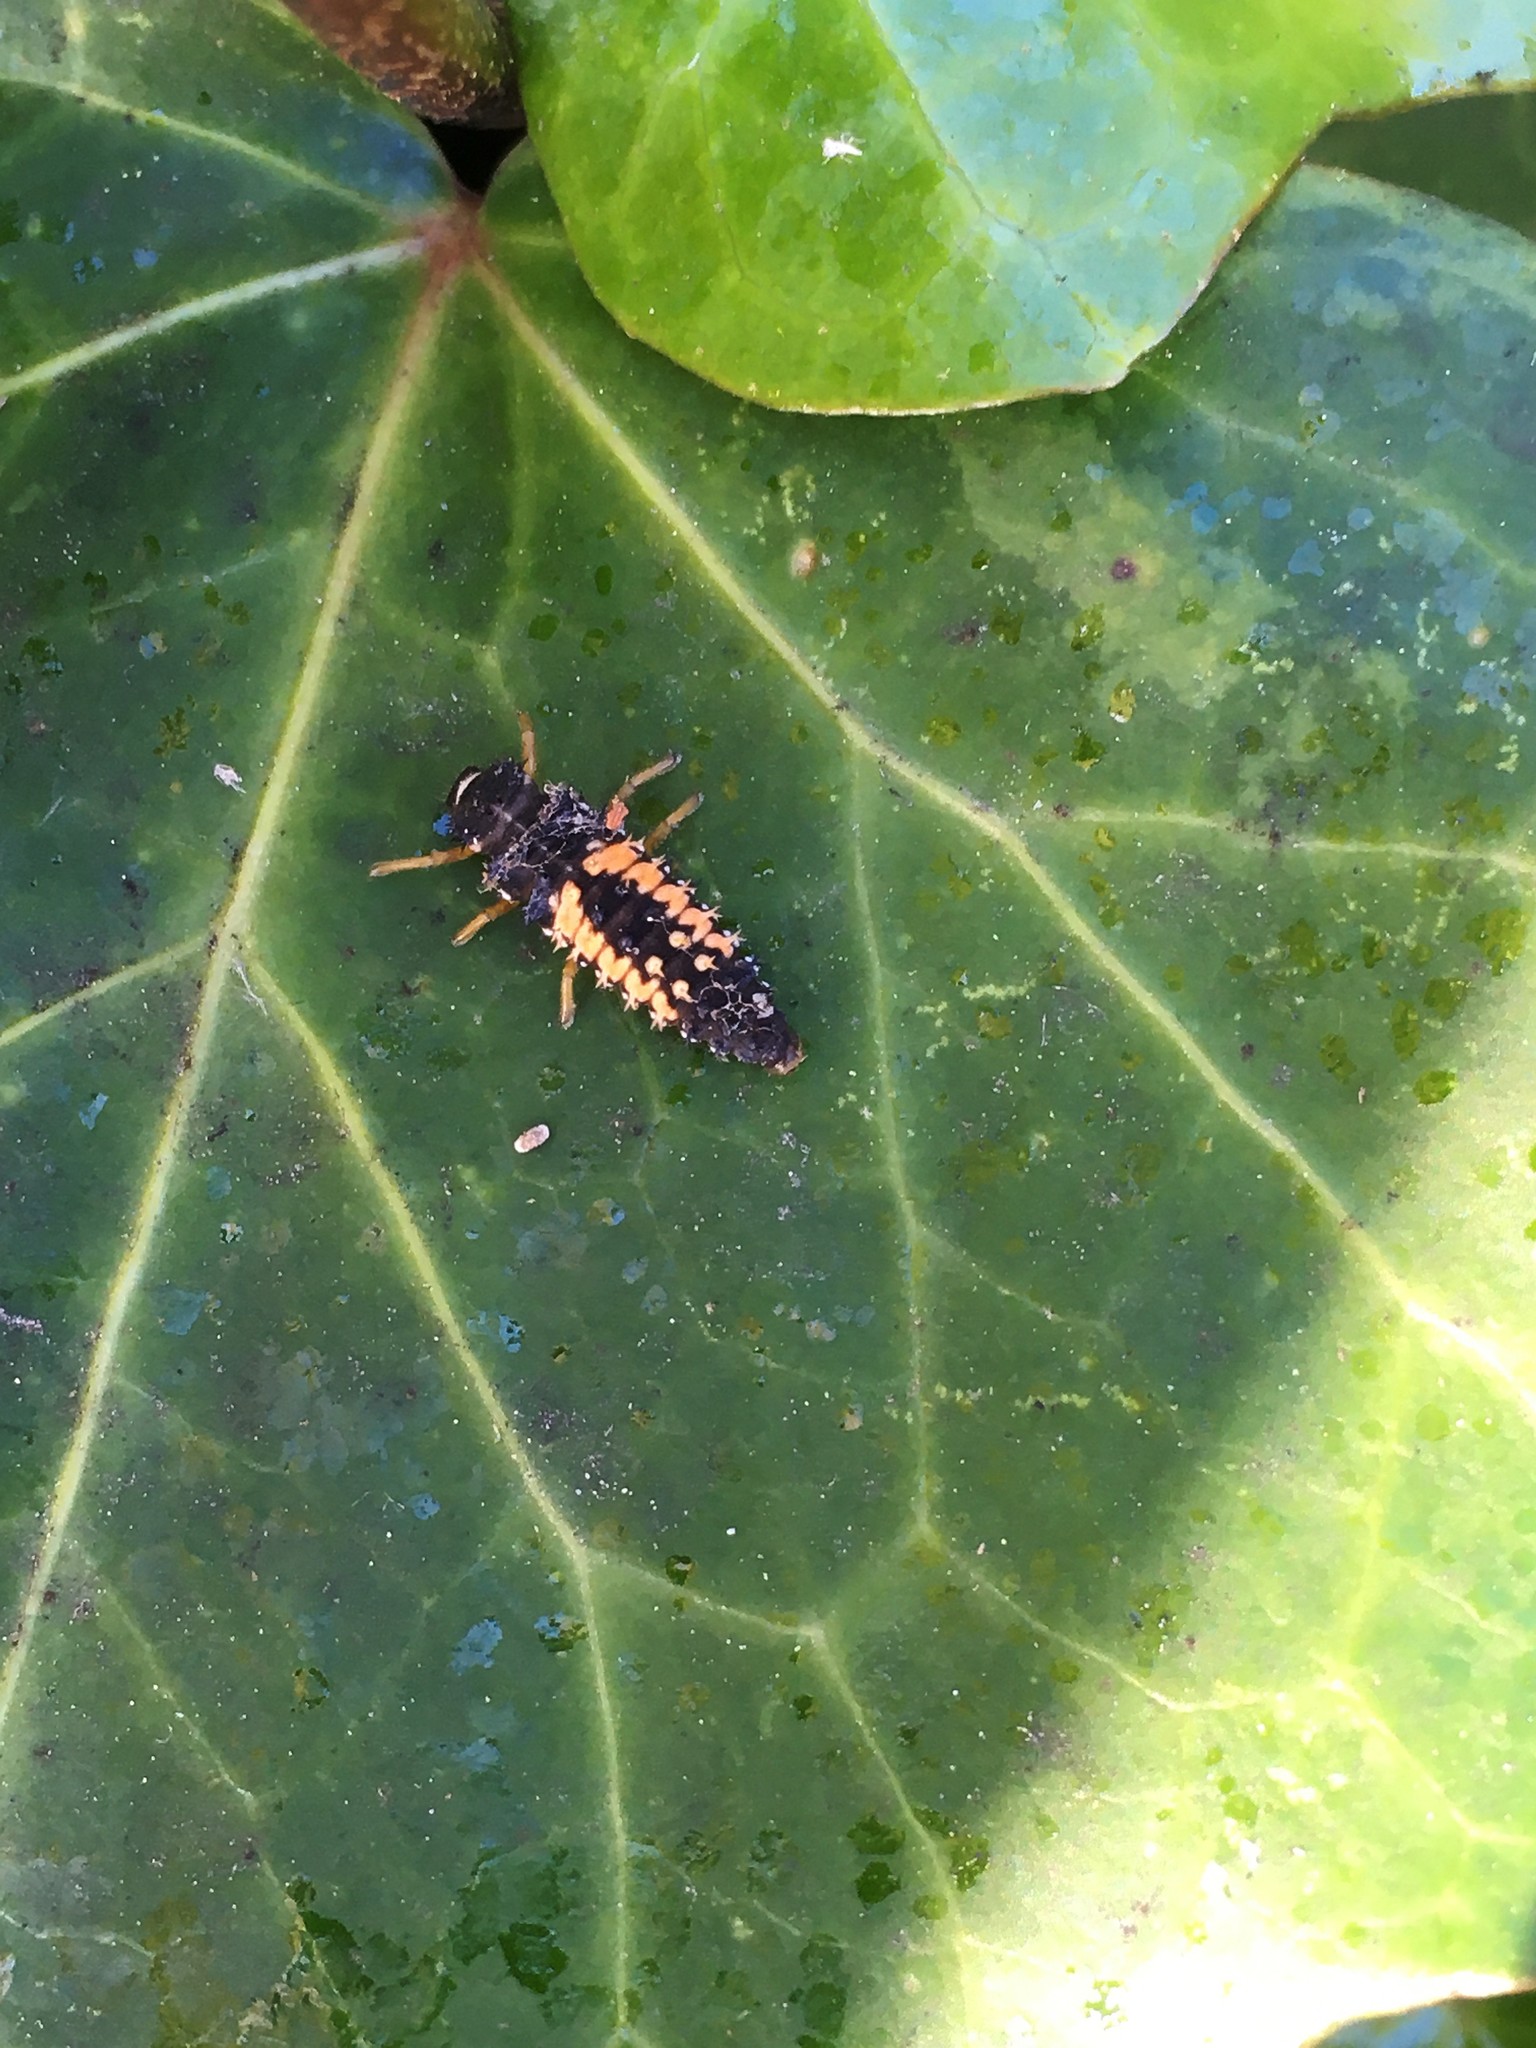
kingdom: Animalia
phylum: Arthropoda
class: Insecta
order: Coleoptera
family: Coccinellidae
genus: Harmonia
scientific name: Harmonia axyridis
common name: Harlequin ladybird
